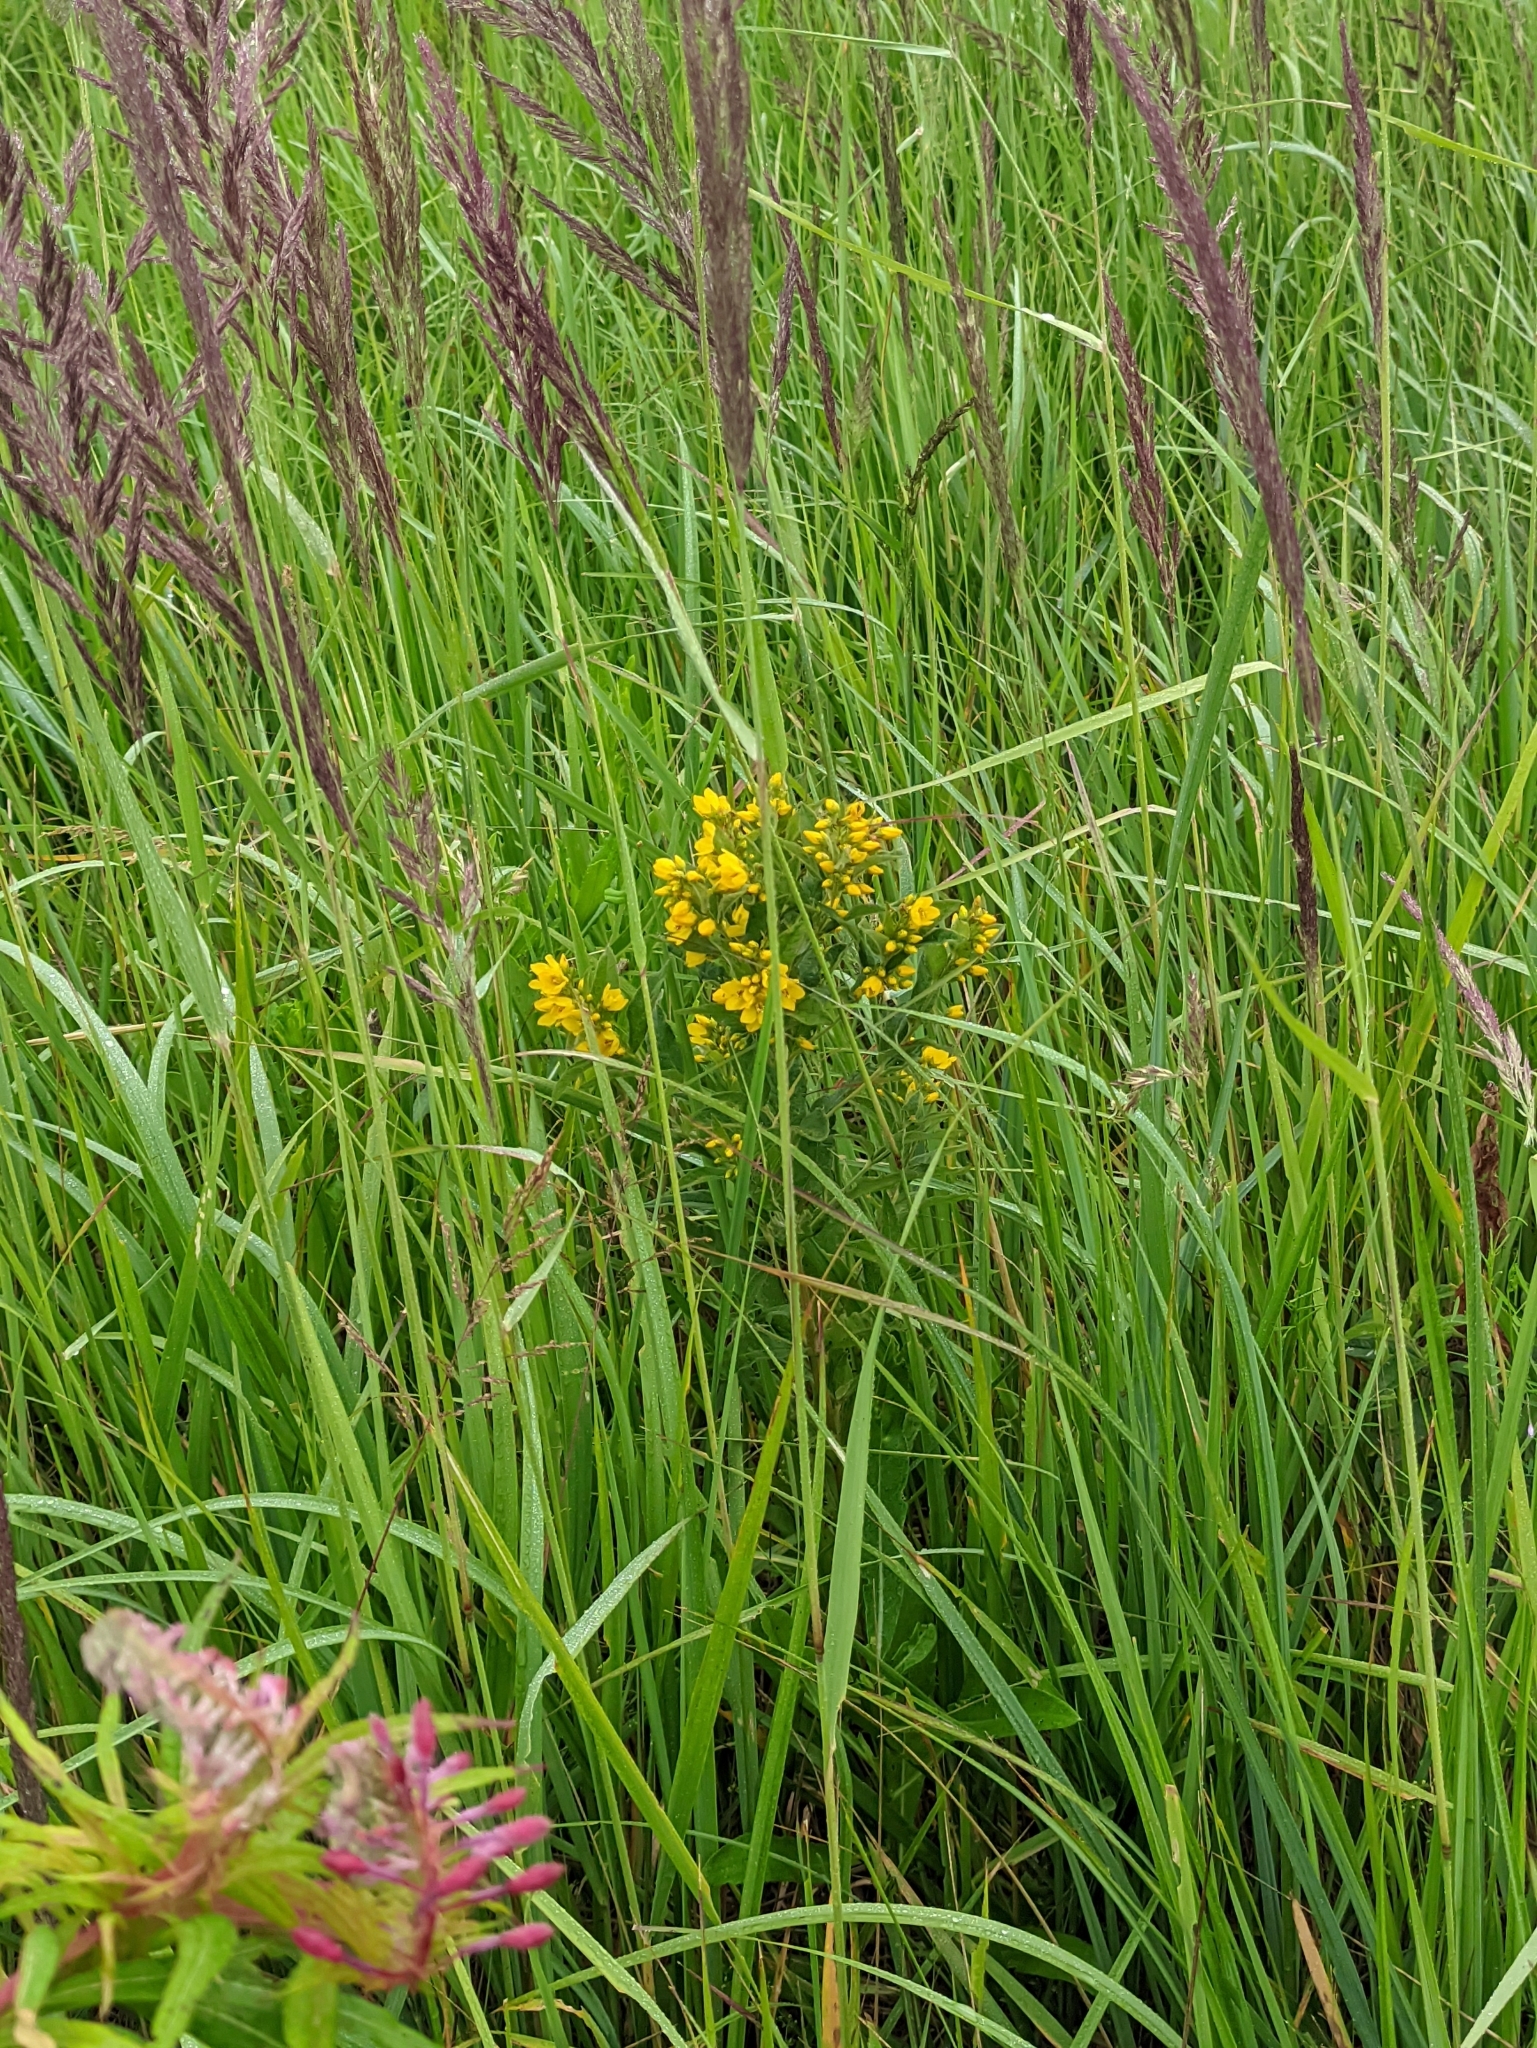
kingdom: Plantae
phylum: Tracheophyta
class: Magnoliopsida
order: Ericales
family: Primulaceae
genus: Lysimachia
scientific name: Lysimachia vulgaris
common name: Yellow loosestrife
